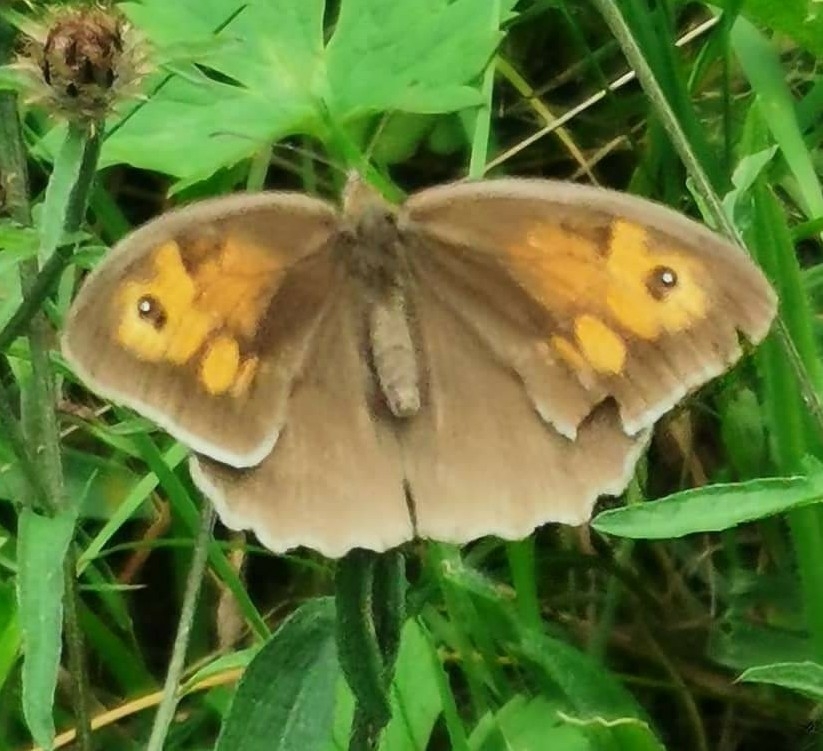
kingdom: Animalia
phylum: Arthropoda
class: Insecta
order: Lepidoptera
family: Nymphalidae
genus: Maniola
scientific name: Maniola jurtina
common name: Meadow brown
